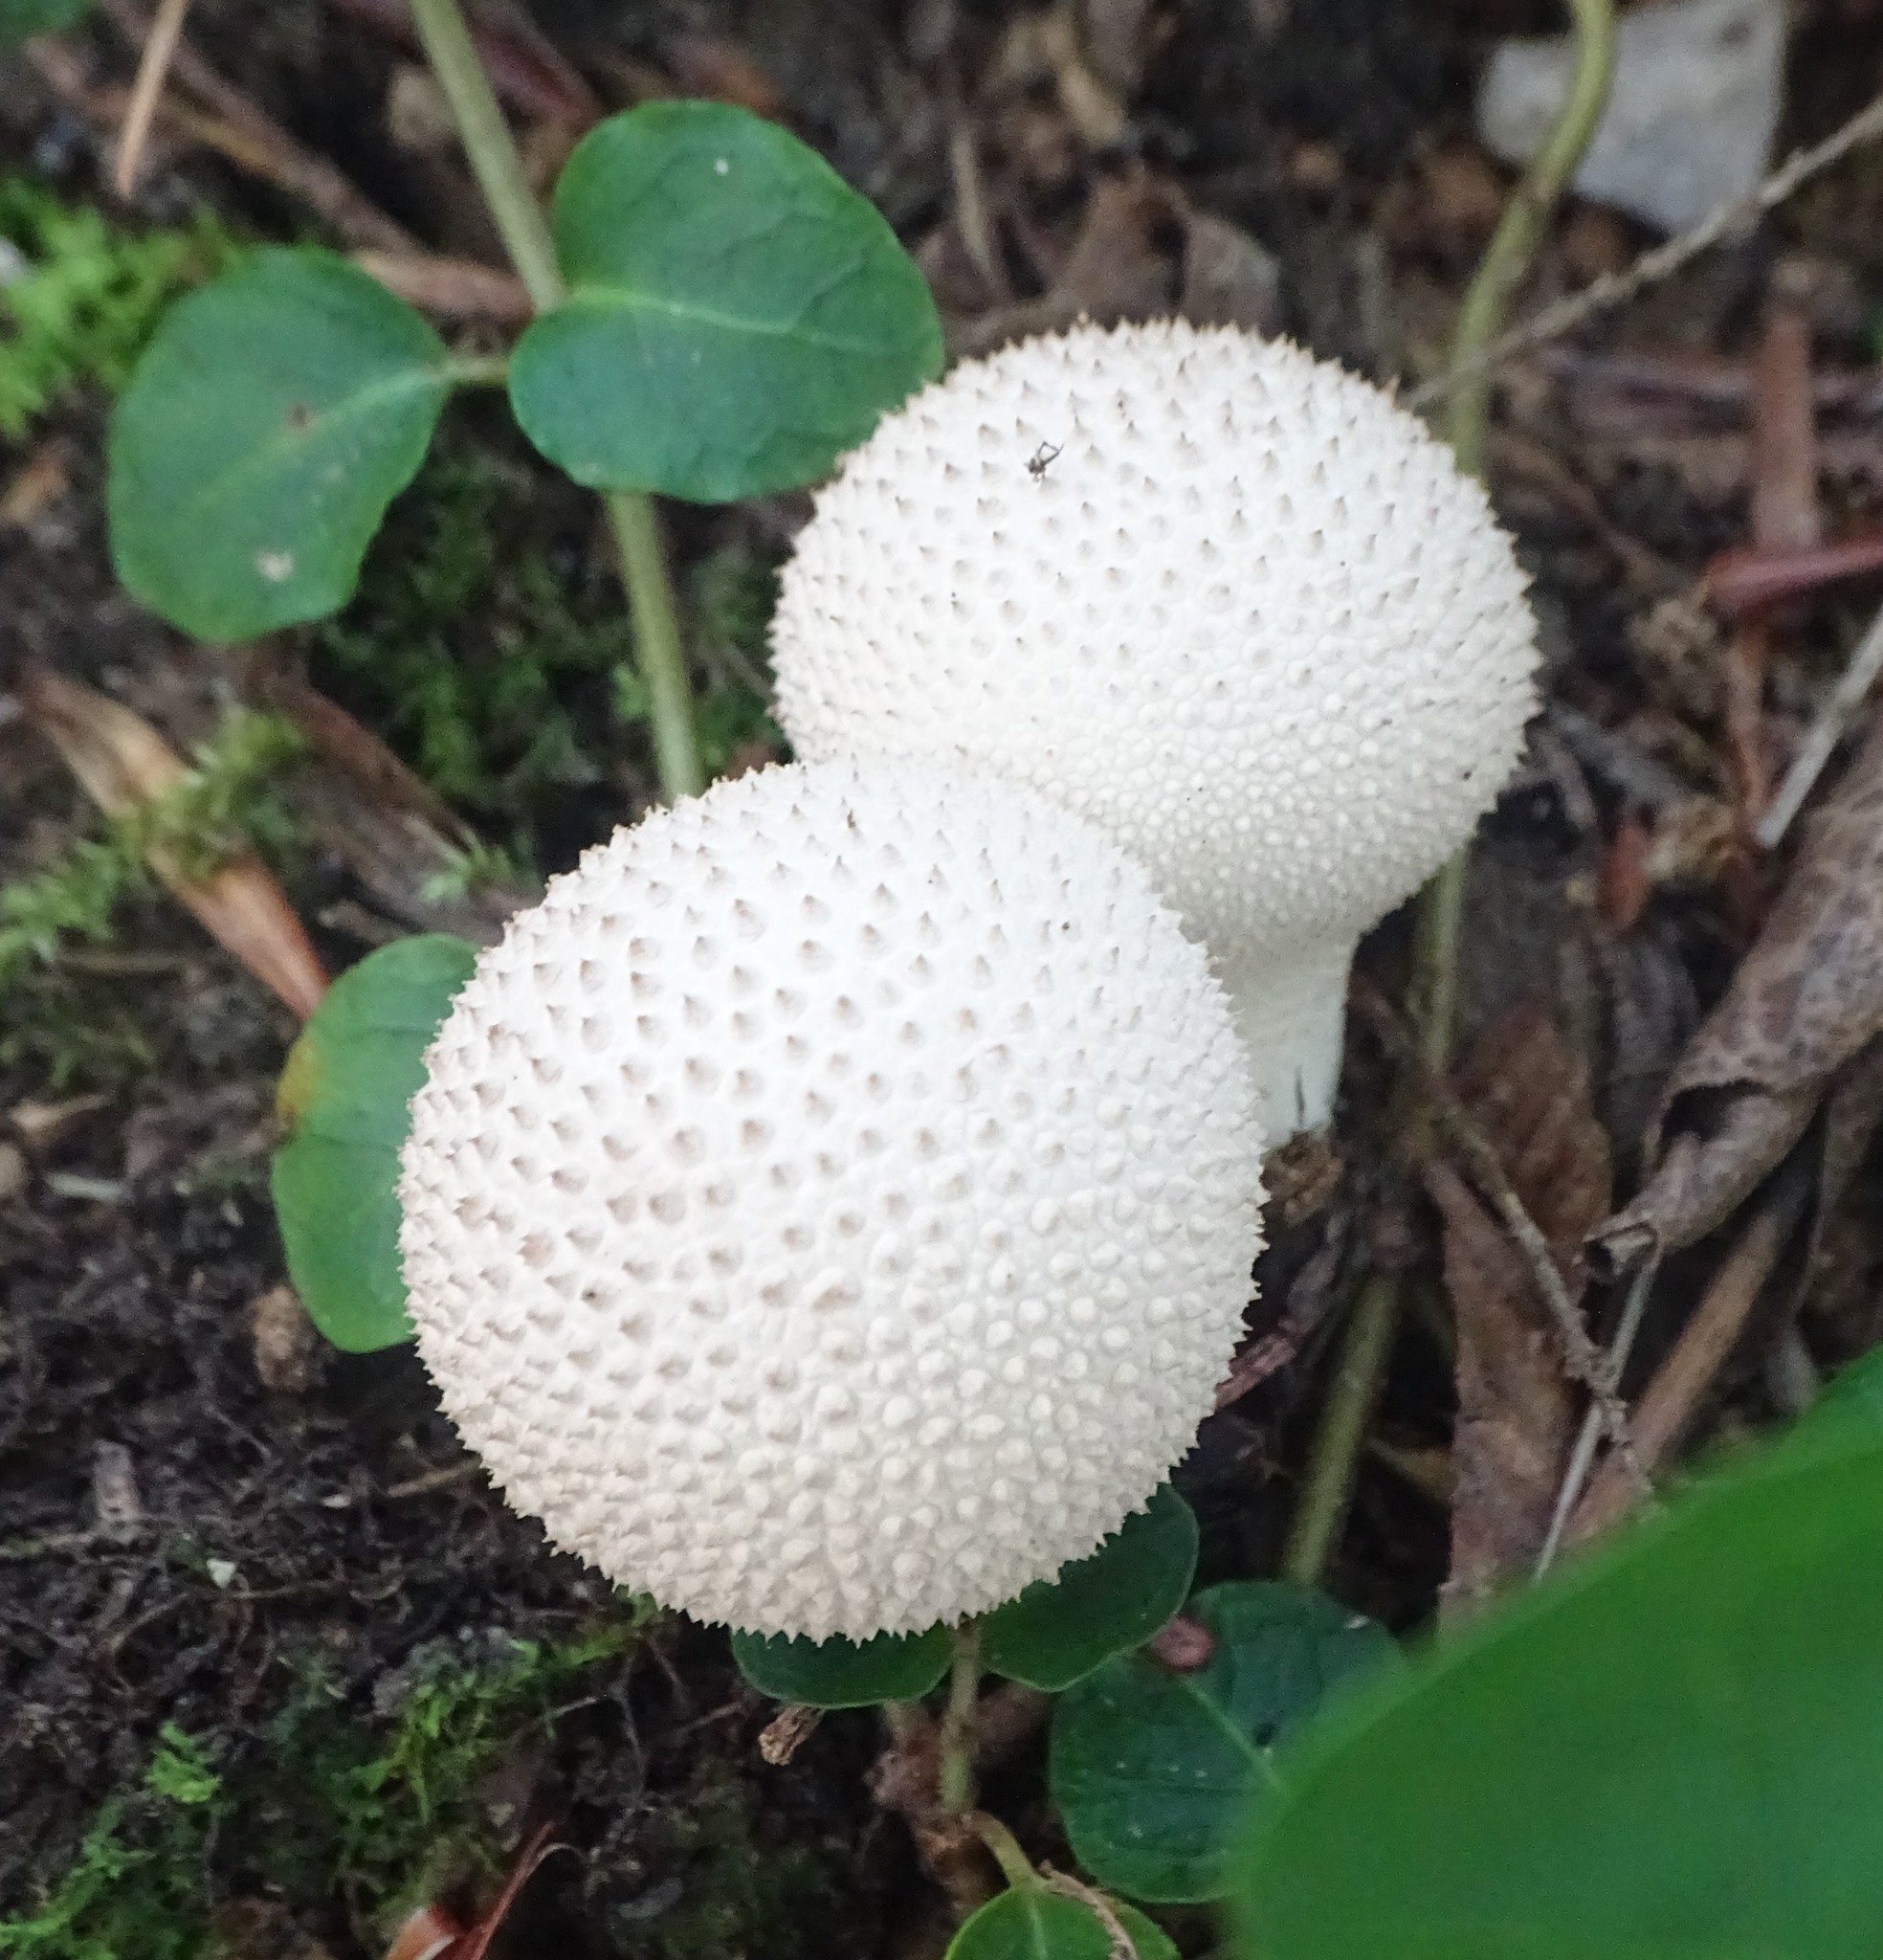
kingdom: Fungi
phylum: Basidiomycota
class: Agaricomycetes
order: Agaricales
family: Lycoperdaceae
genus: Lycoperdon
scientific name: Lycoperdon perlatum
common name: Common puffball
